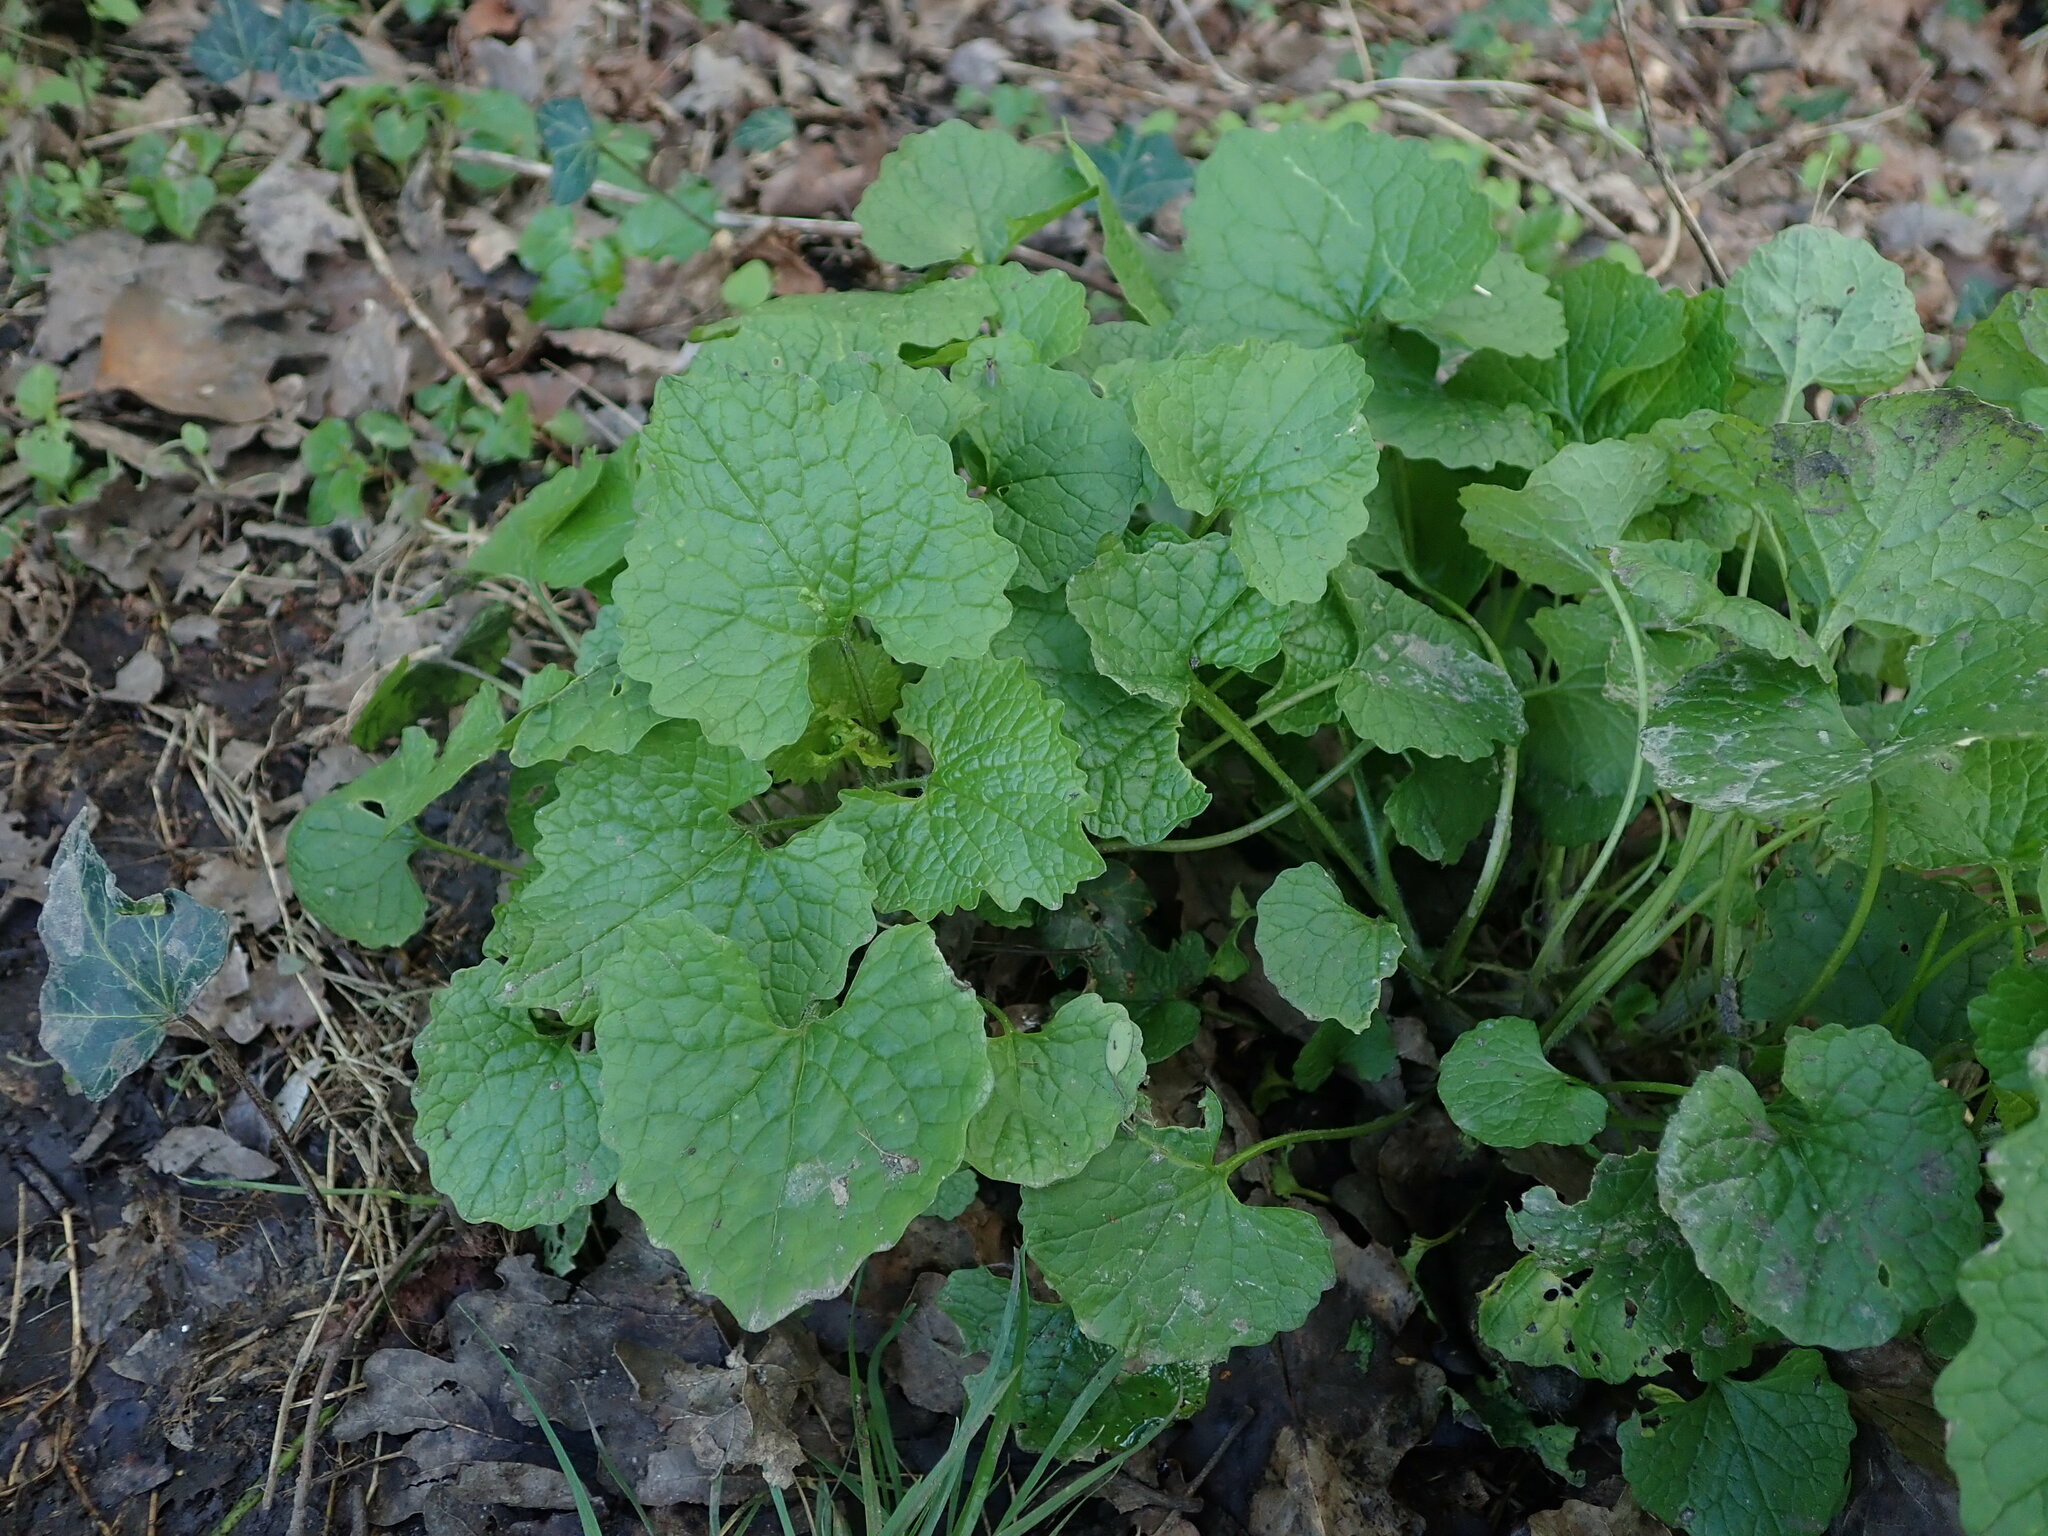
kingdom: Plantae
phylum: Tracheophyta
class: Magnoliopsida
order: Brassicales
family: Brassicaceae
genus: Alliaria
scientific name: Alliaria petiolata
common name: Garlic mustard
